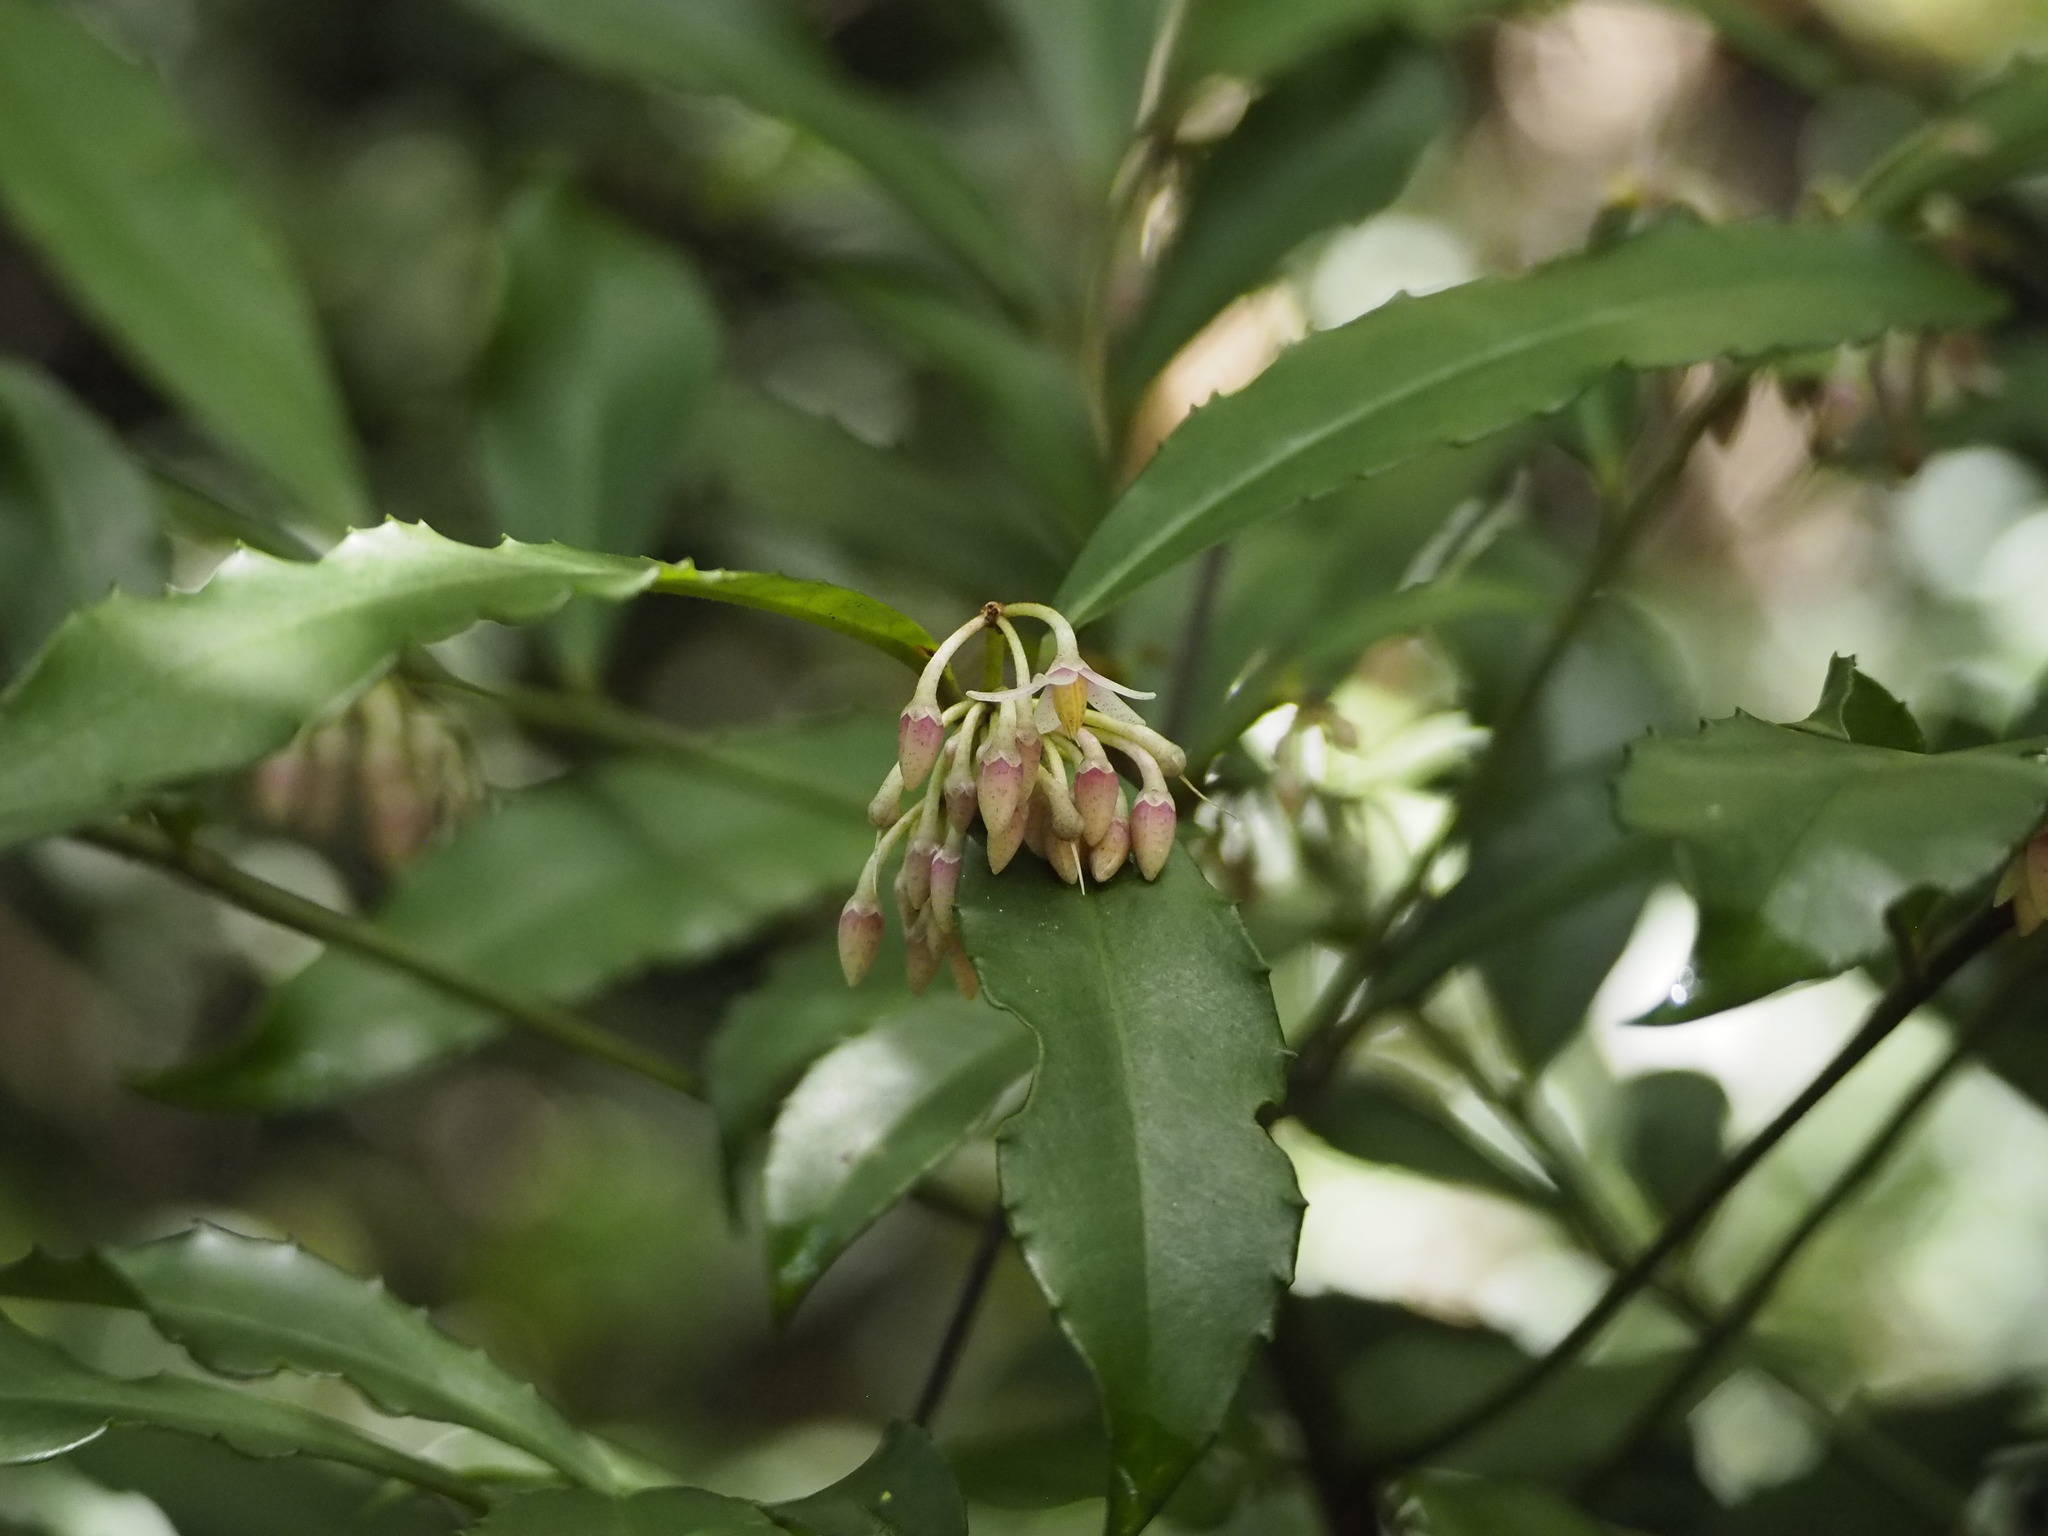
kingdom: Plantae
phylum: Tracheophyta
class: Magnoliopsida
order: Ericales
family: Primulaceae
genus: Ardisia
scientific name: Ardisia cornudentata
